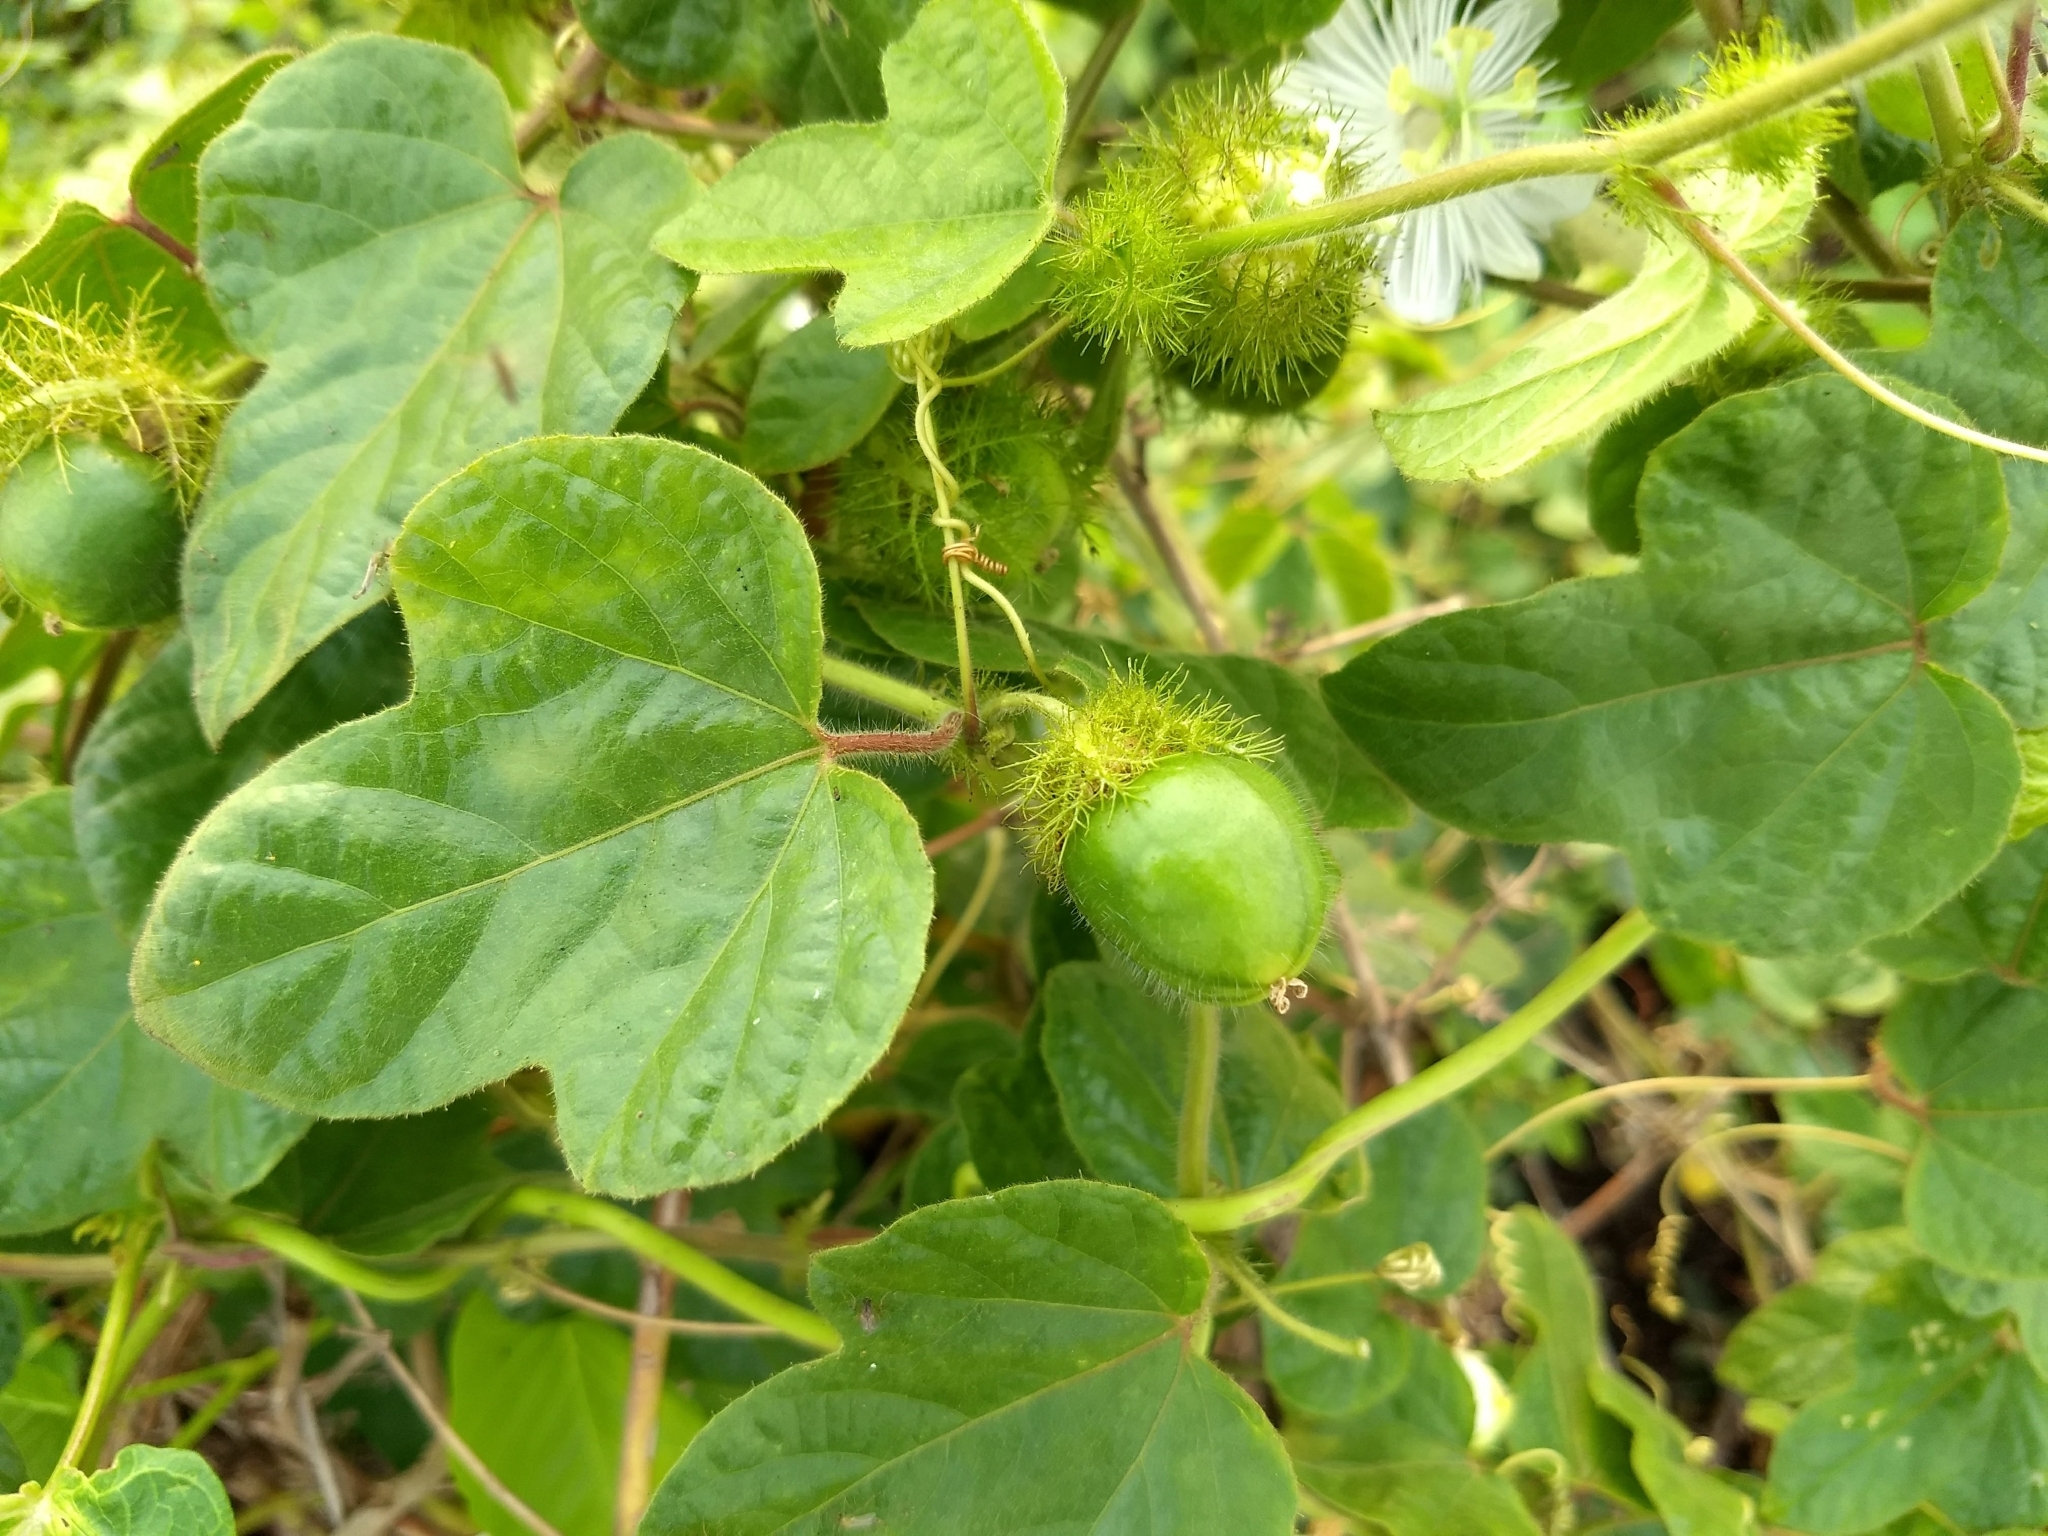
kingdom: Plantae
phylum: Tracheophyta
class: Magnoliopsida
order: Malpighiales
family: Passifloraceae
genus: Passiflora
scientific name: Passiflora foetida
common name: Fetid passionflower
